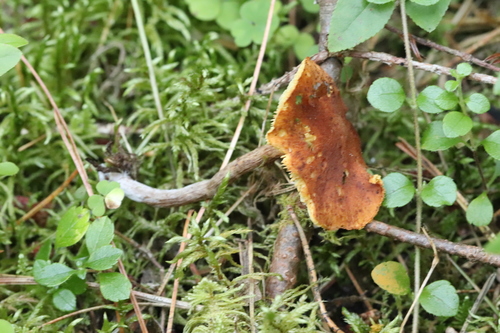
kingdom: Fungi
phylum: Basidiomycota
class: Agaricomycetes
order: Agaricales
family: Hymenogastraceae
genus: Gymnopilus
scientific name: Gymnopilus penetrans
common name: Common rustgill
